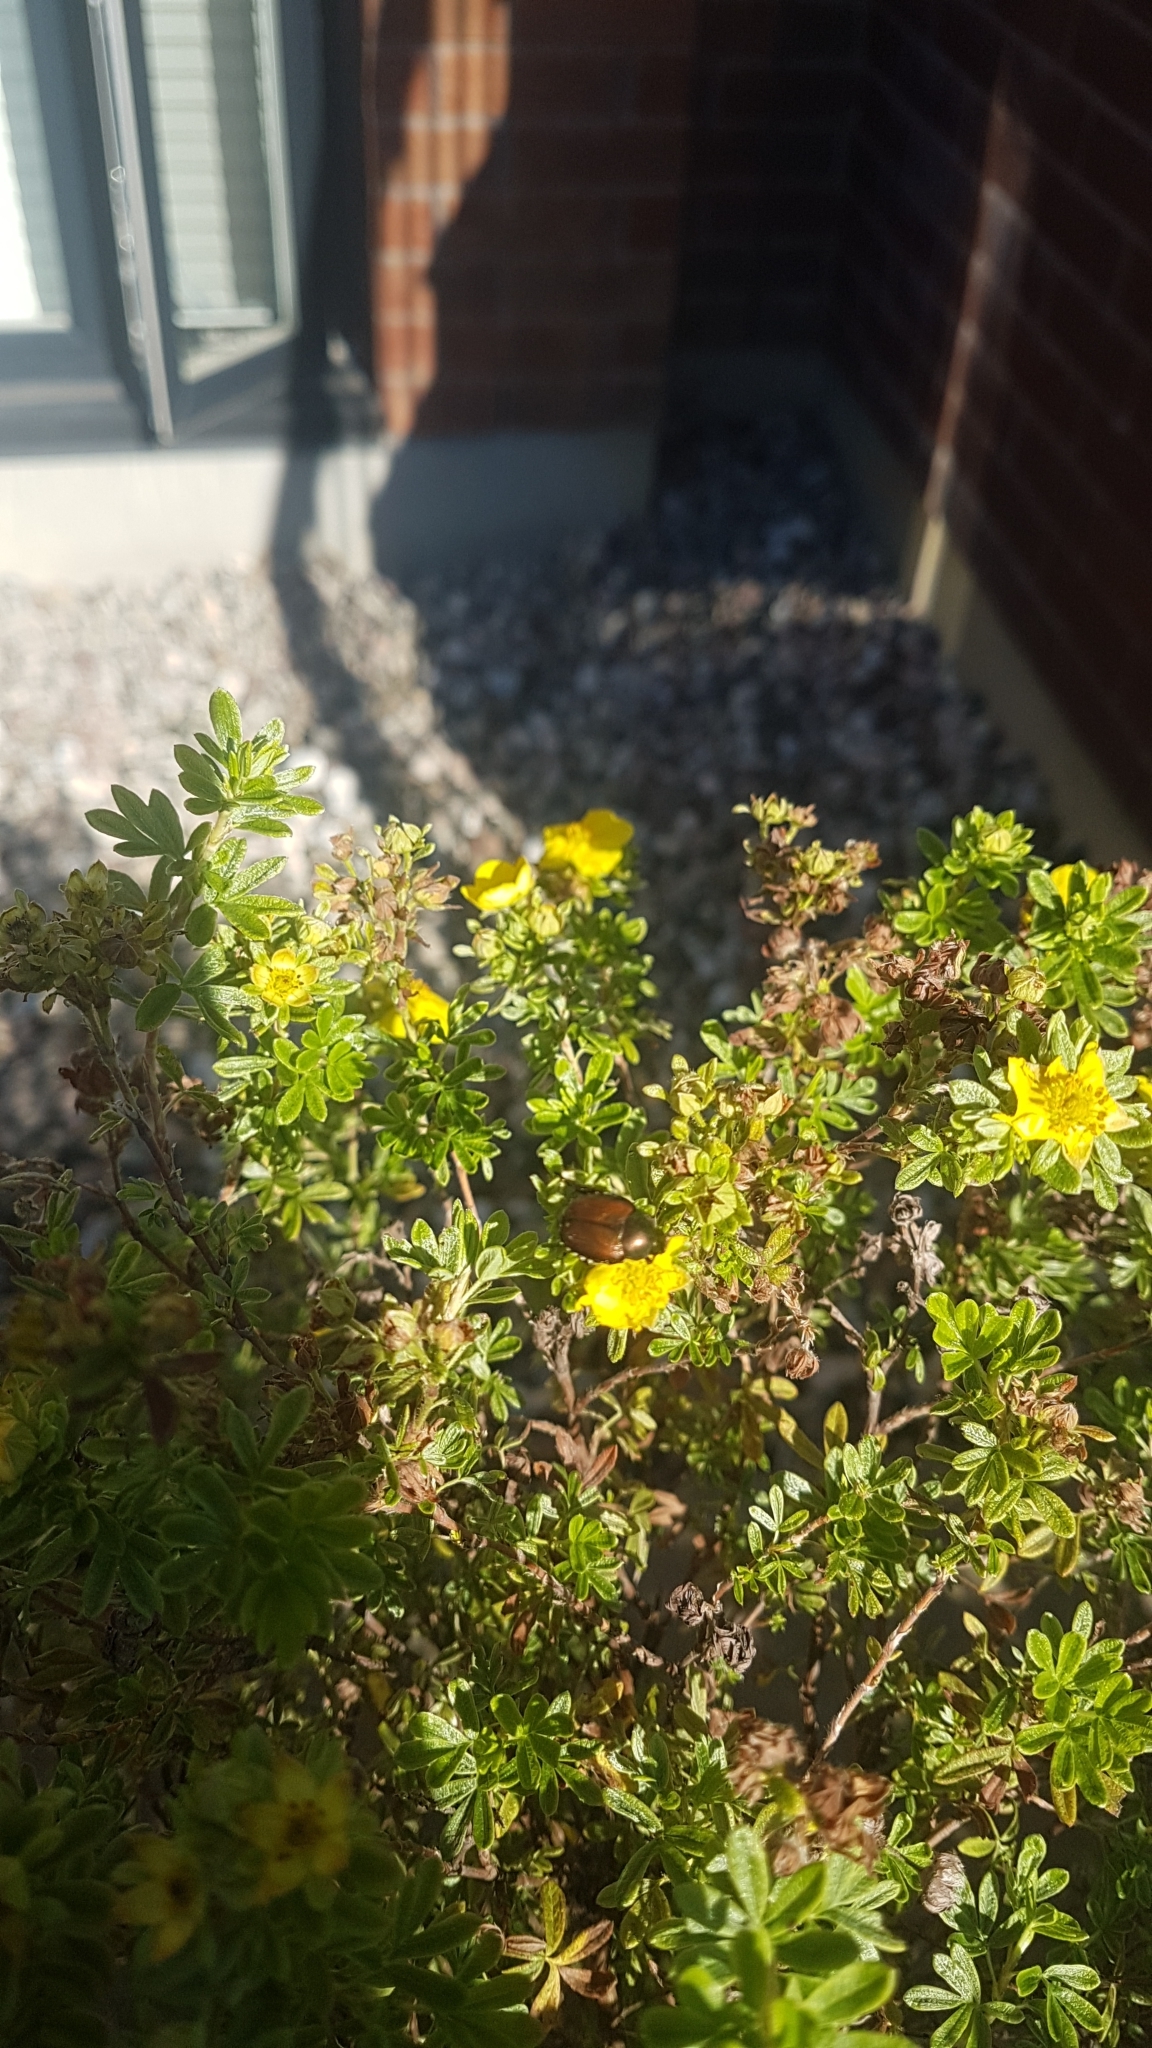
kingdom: Animalia
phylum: Arthropoda
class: Insecta
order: Coleoptera
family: Scarabaeidae
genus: Popillia
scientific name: Popillia japonica
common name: Japanese beetle
